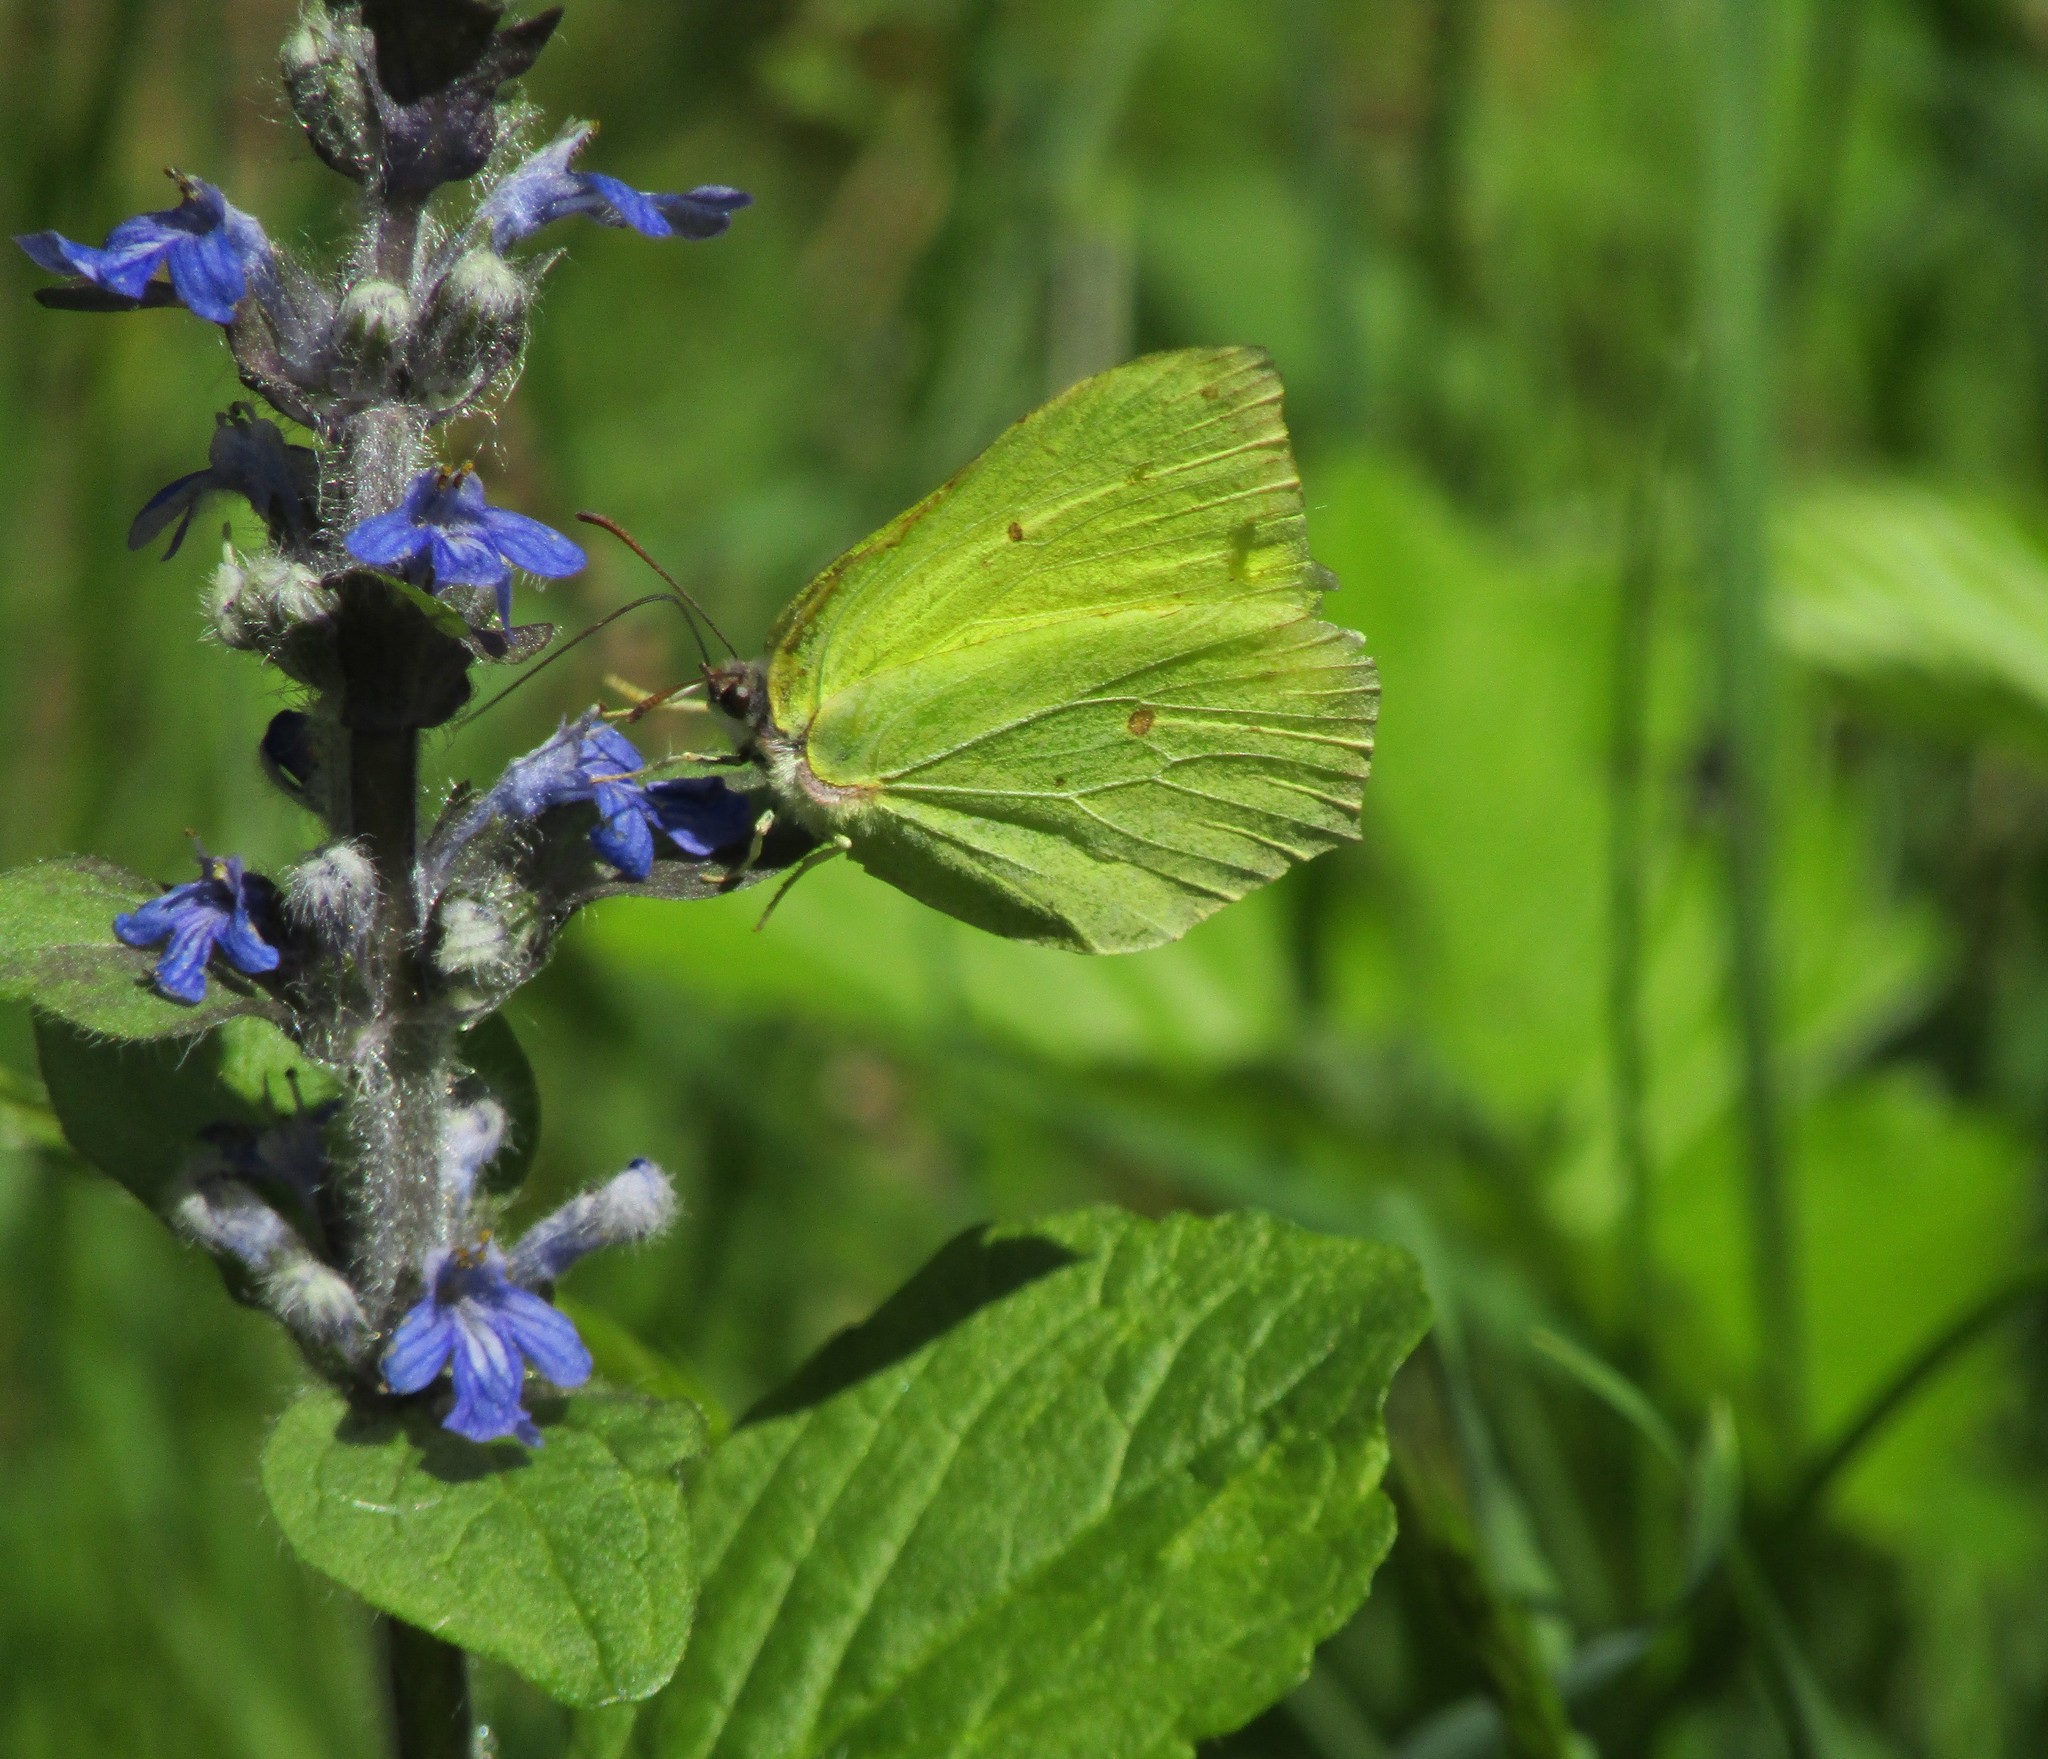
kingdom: Animalia
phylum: Arthropoda
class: Insecta
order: Lepidoptera
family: Pieridae
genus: Gonepteryx
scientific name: Gonepteryx rhamni
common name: Brimstone
